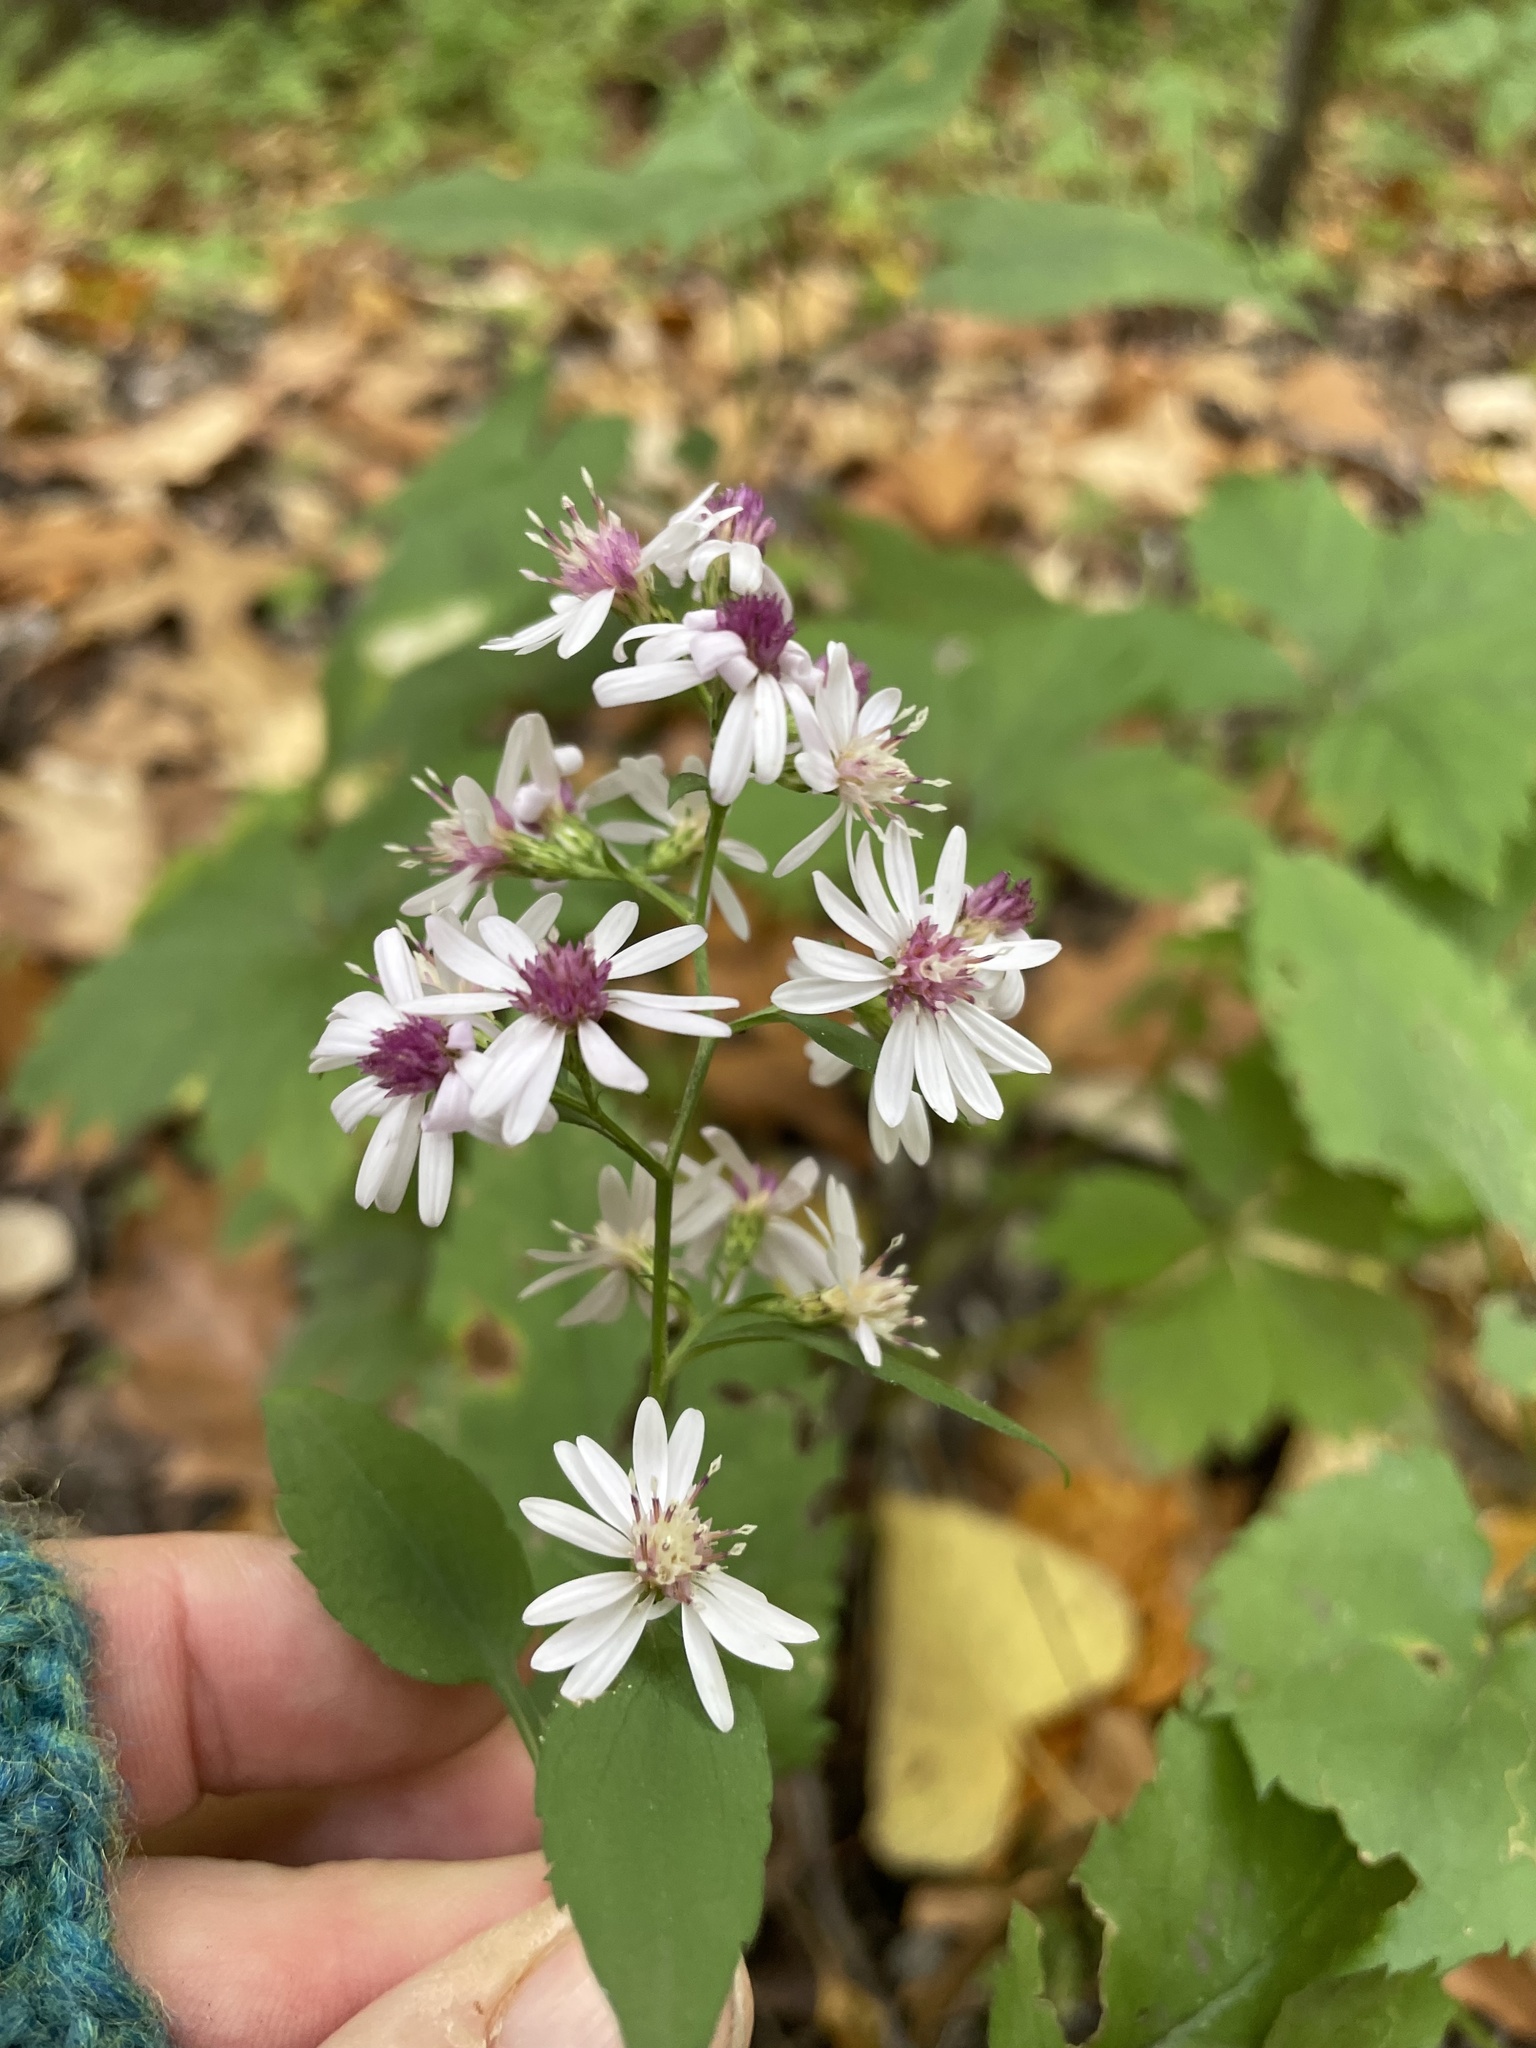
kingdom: Plantae
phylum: Tracheophyta
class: Magnoliopsida
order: Asterales
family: Asteraceae
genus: Symphyotrichum
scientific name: Symphyotrichum cordifolium
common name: Beeweed
